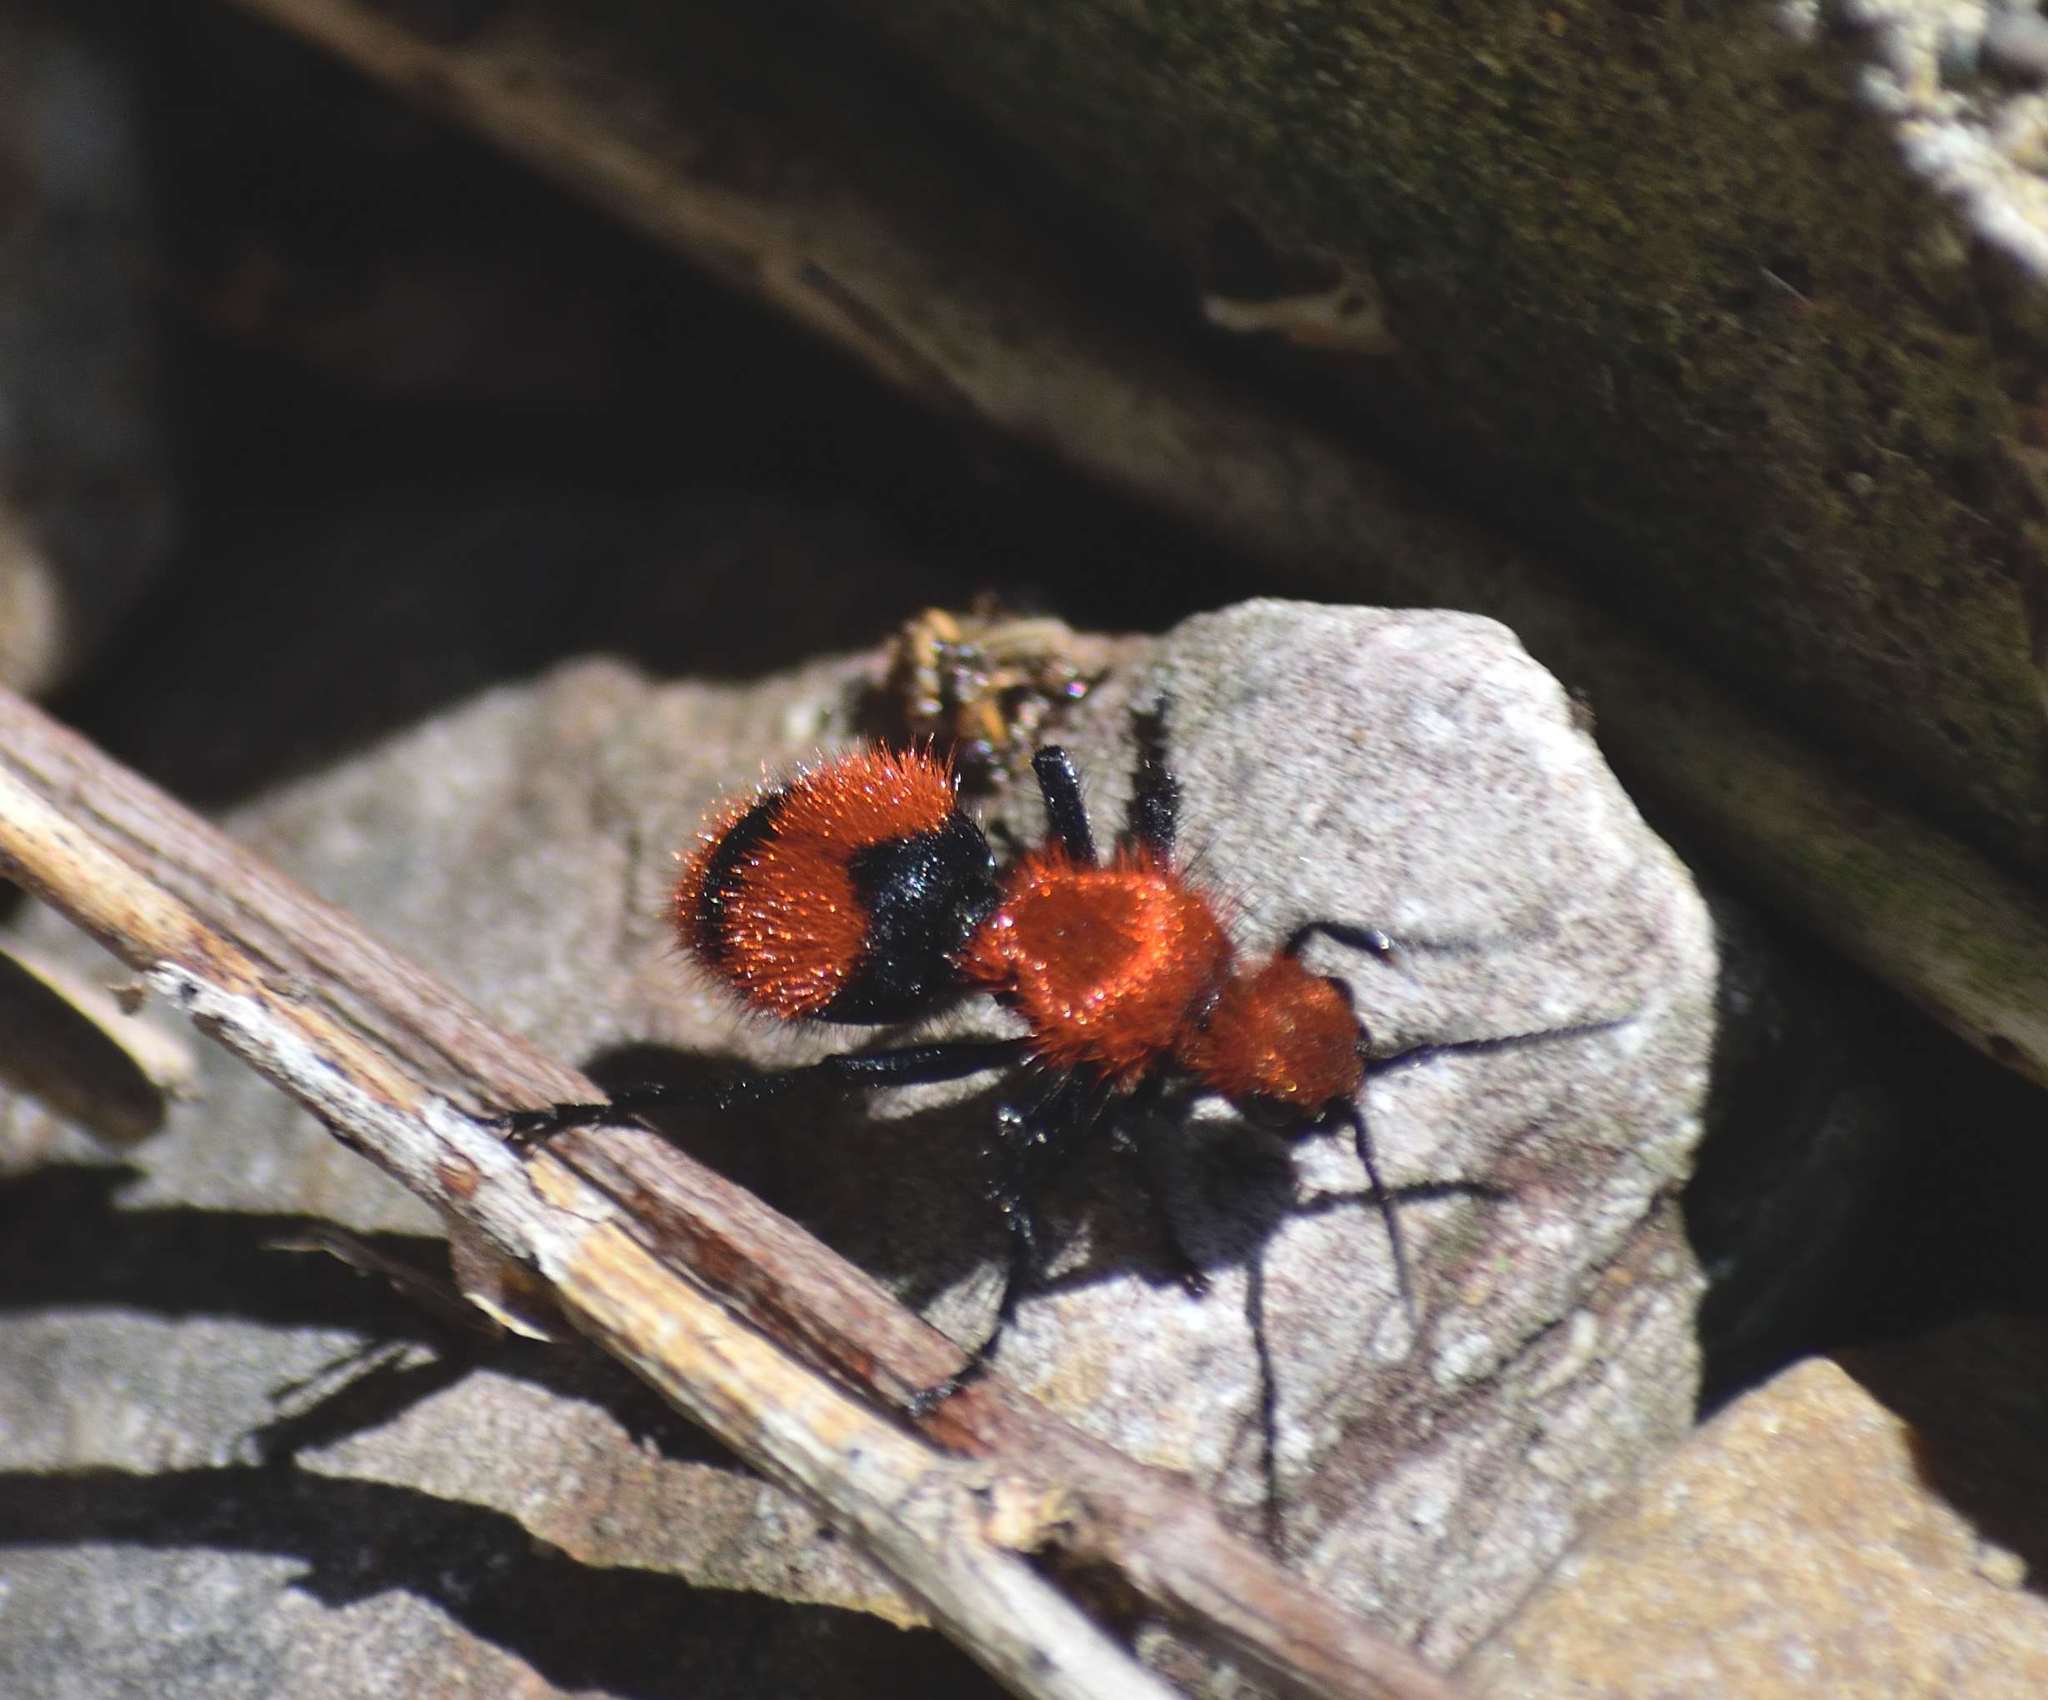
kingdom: Animalia
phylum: Arthropoda
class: Insecta
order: Hymenoptera
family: Mutillidae
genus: Dasymutilla
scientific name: Dasymutilla occidentalis
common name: Common eastern velvet ant
